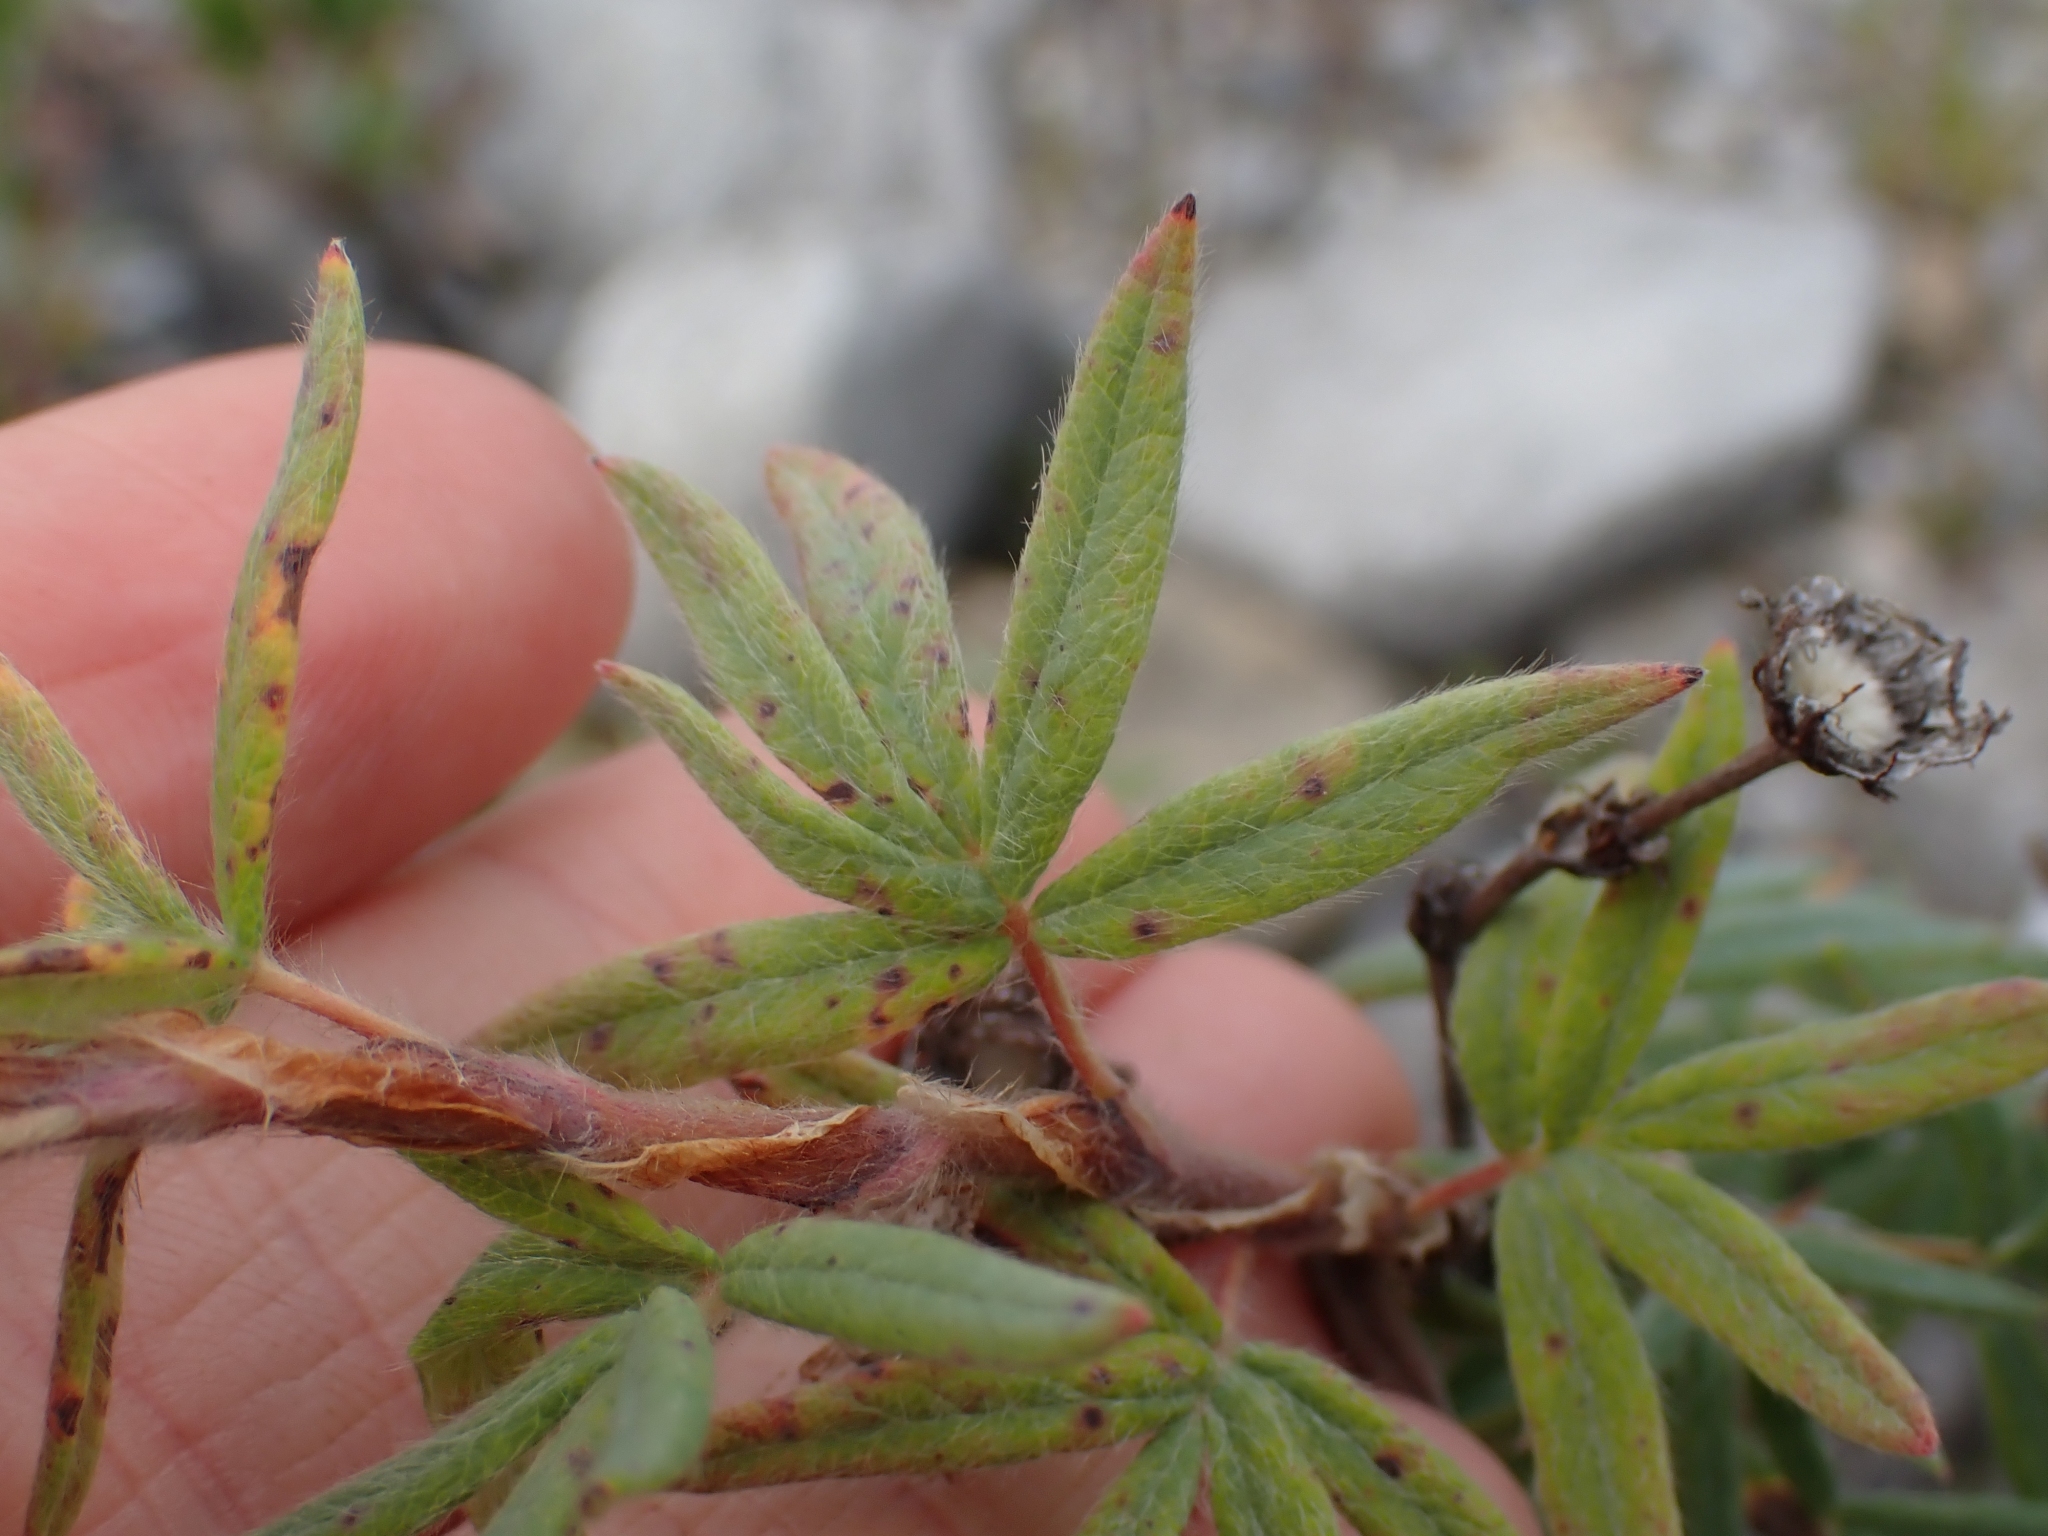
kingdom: Plantae
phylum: Tracheophyta
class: Magnoliopsida
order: Rosales
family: Rosaceae
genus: Dasiphora
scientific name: Dasiphora fruticosa
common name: Shrubby cinquefoil
